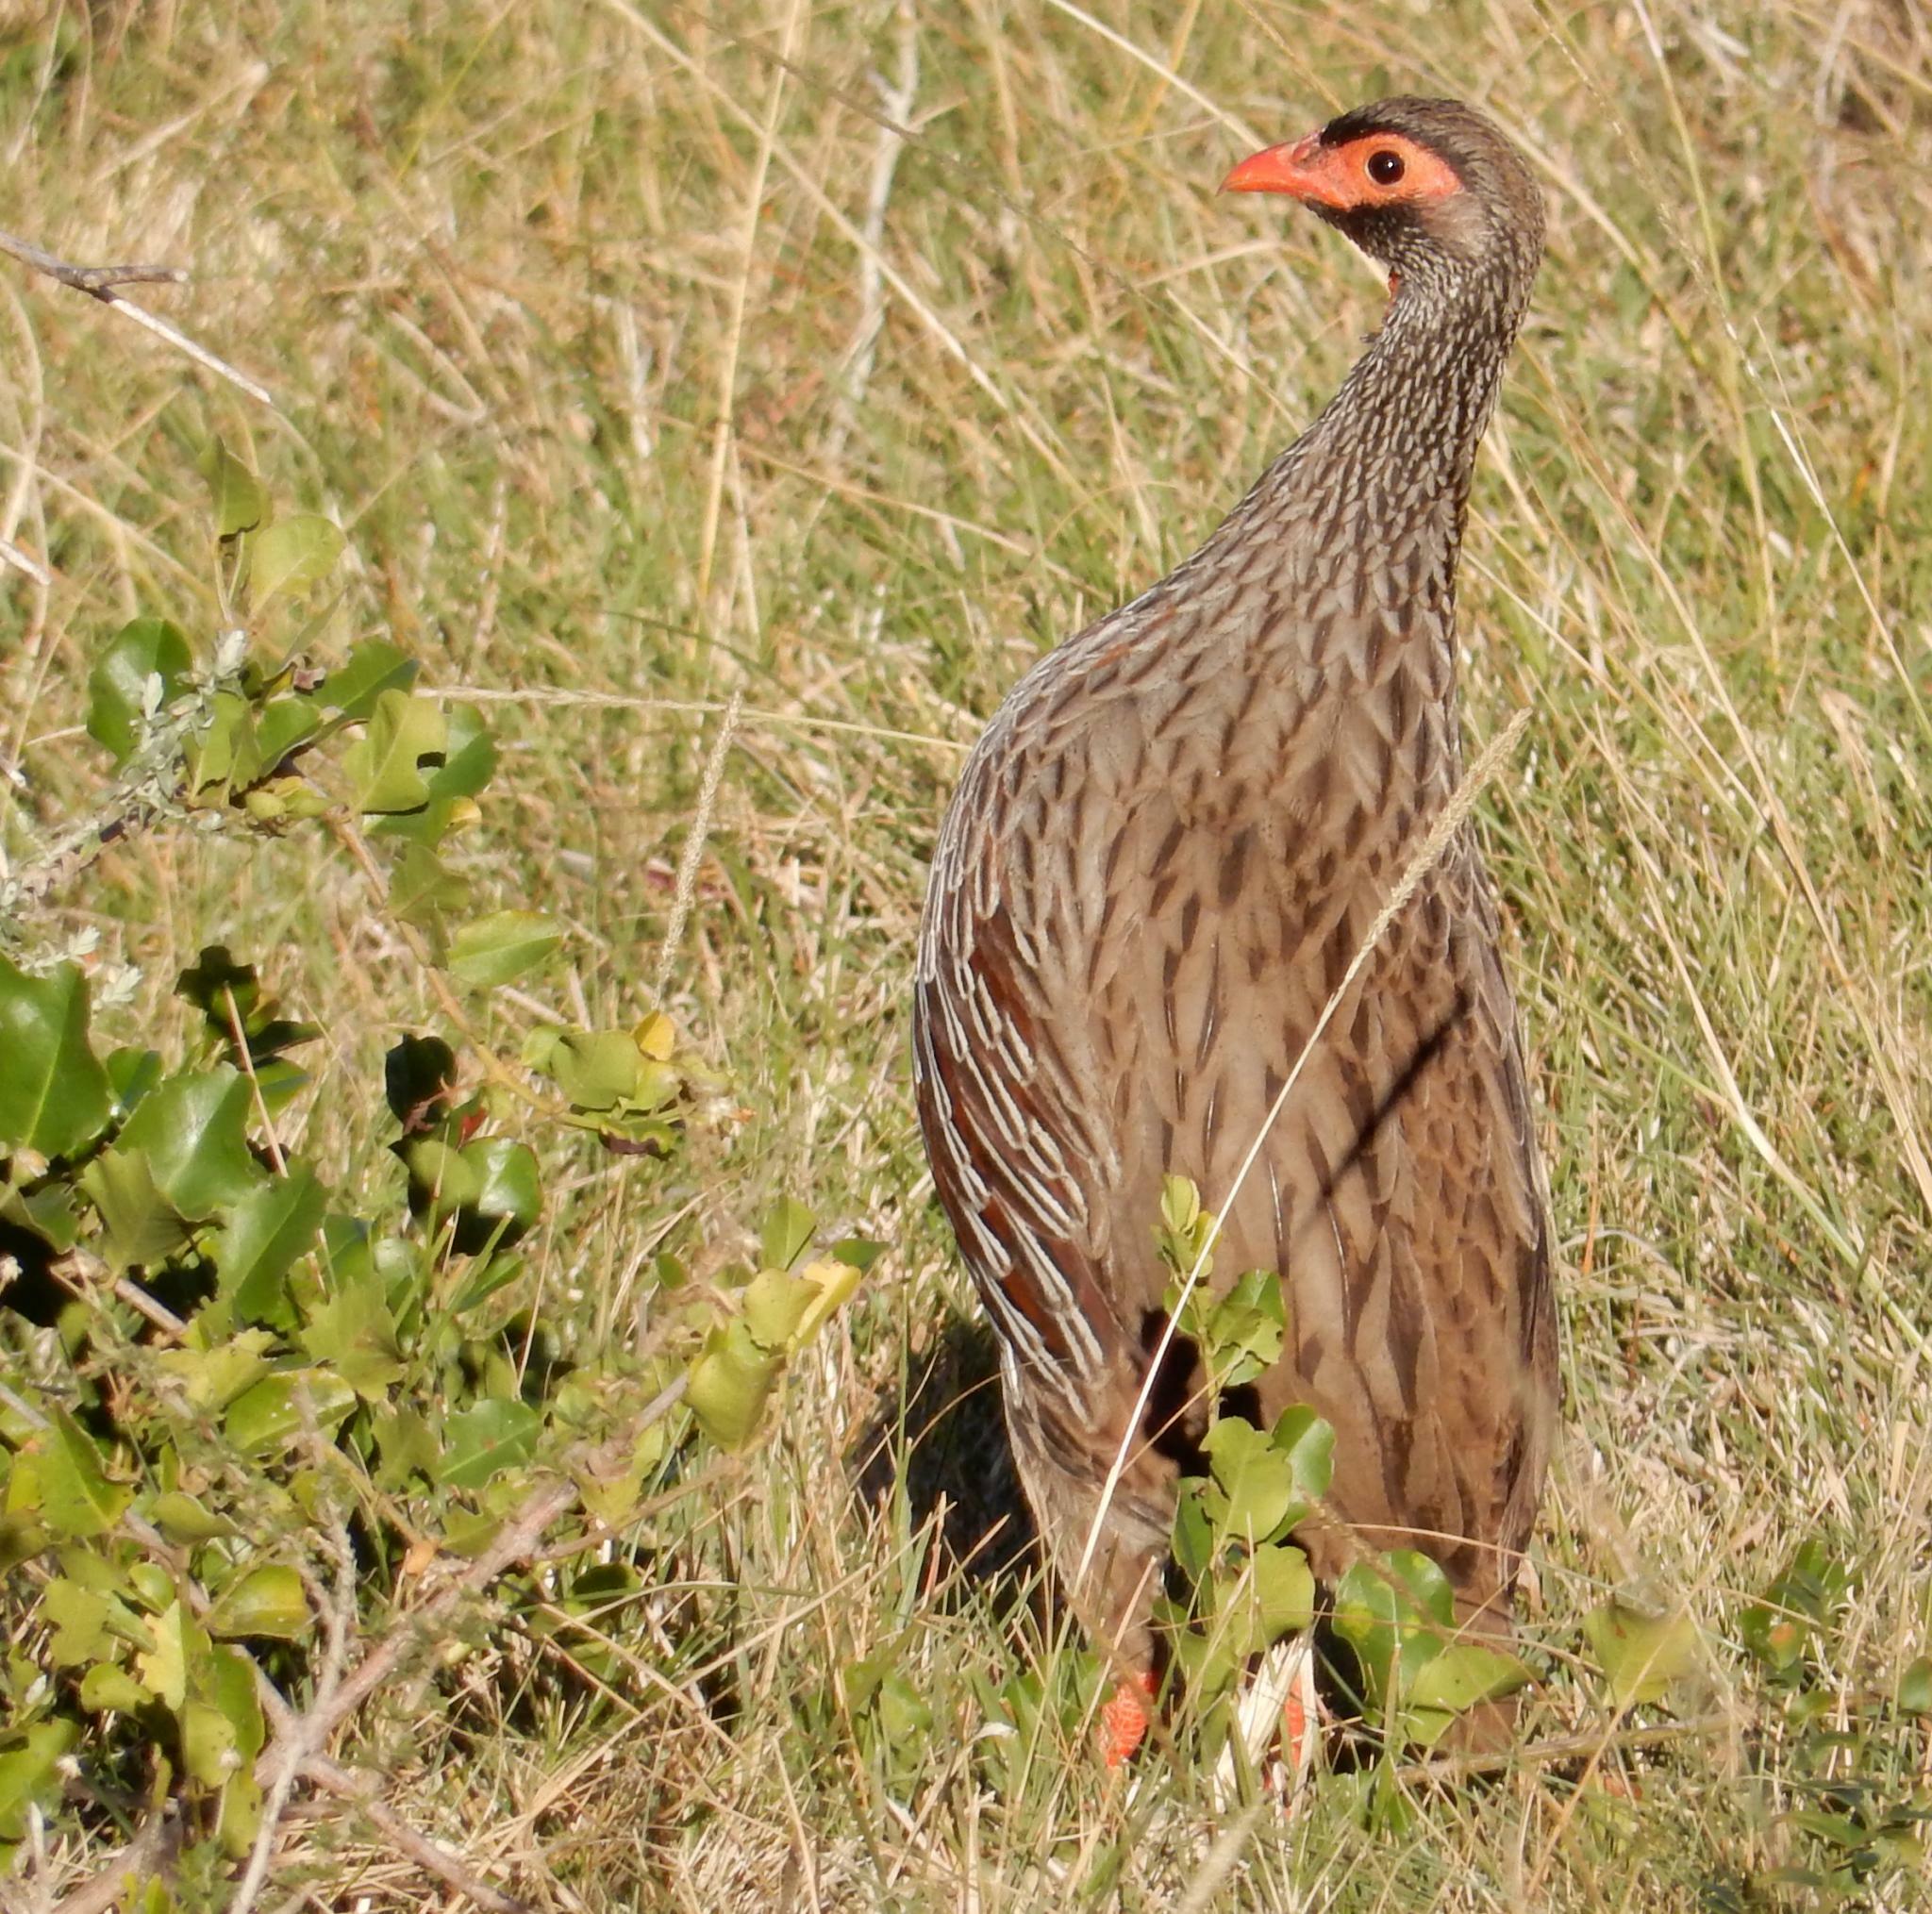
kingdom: Animalia
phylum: Chordata
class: Aves
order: Galliformes
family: Phasianidae
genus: Pternistis
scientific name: Pternistis afer
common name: Red-necked spurfowl
